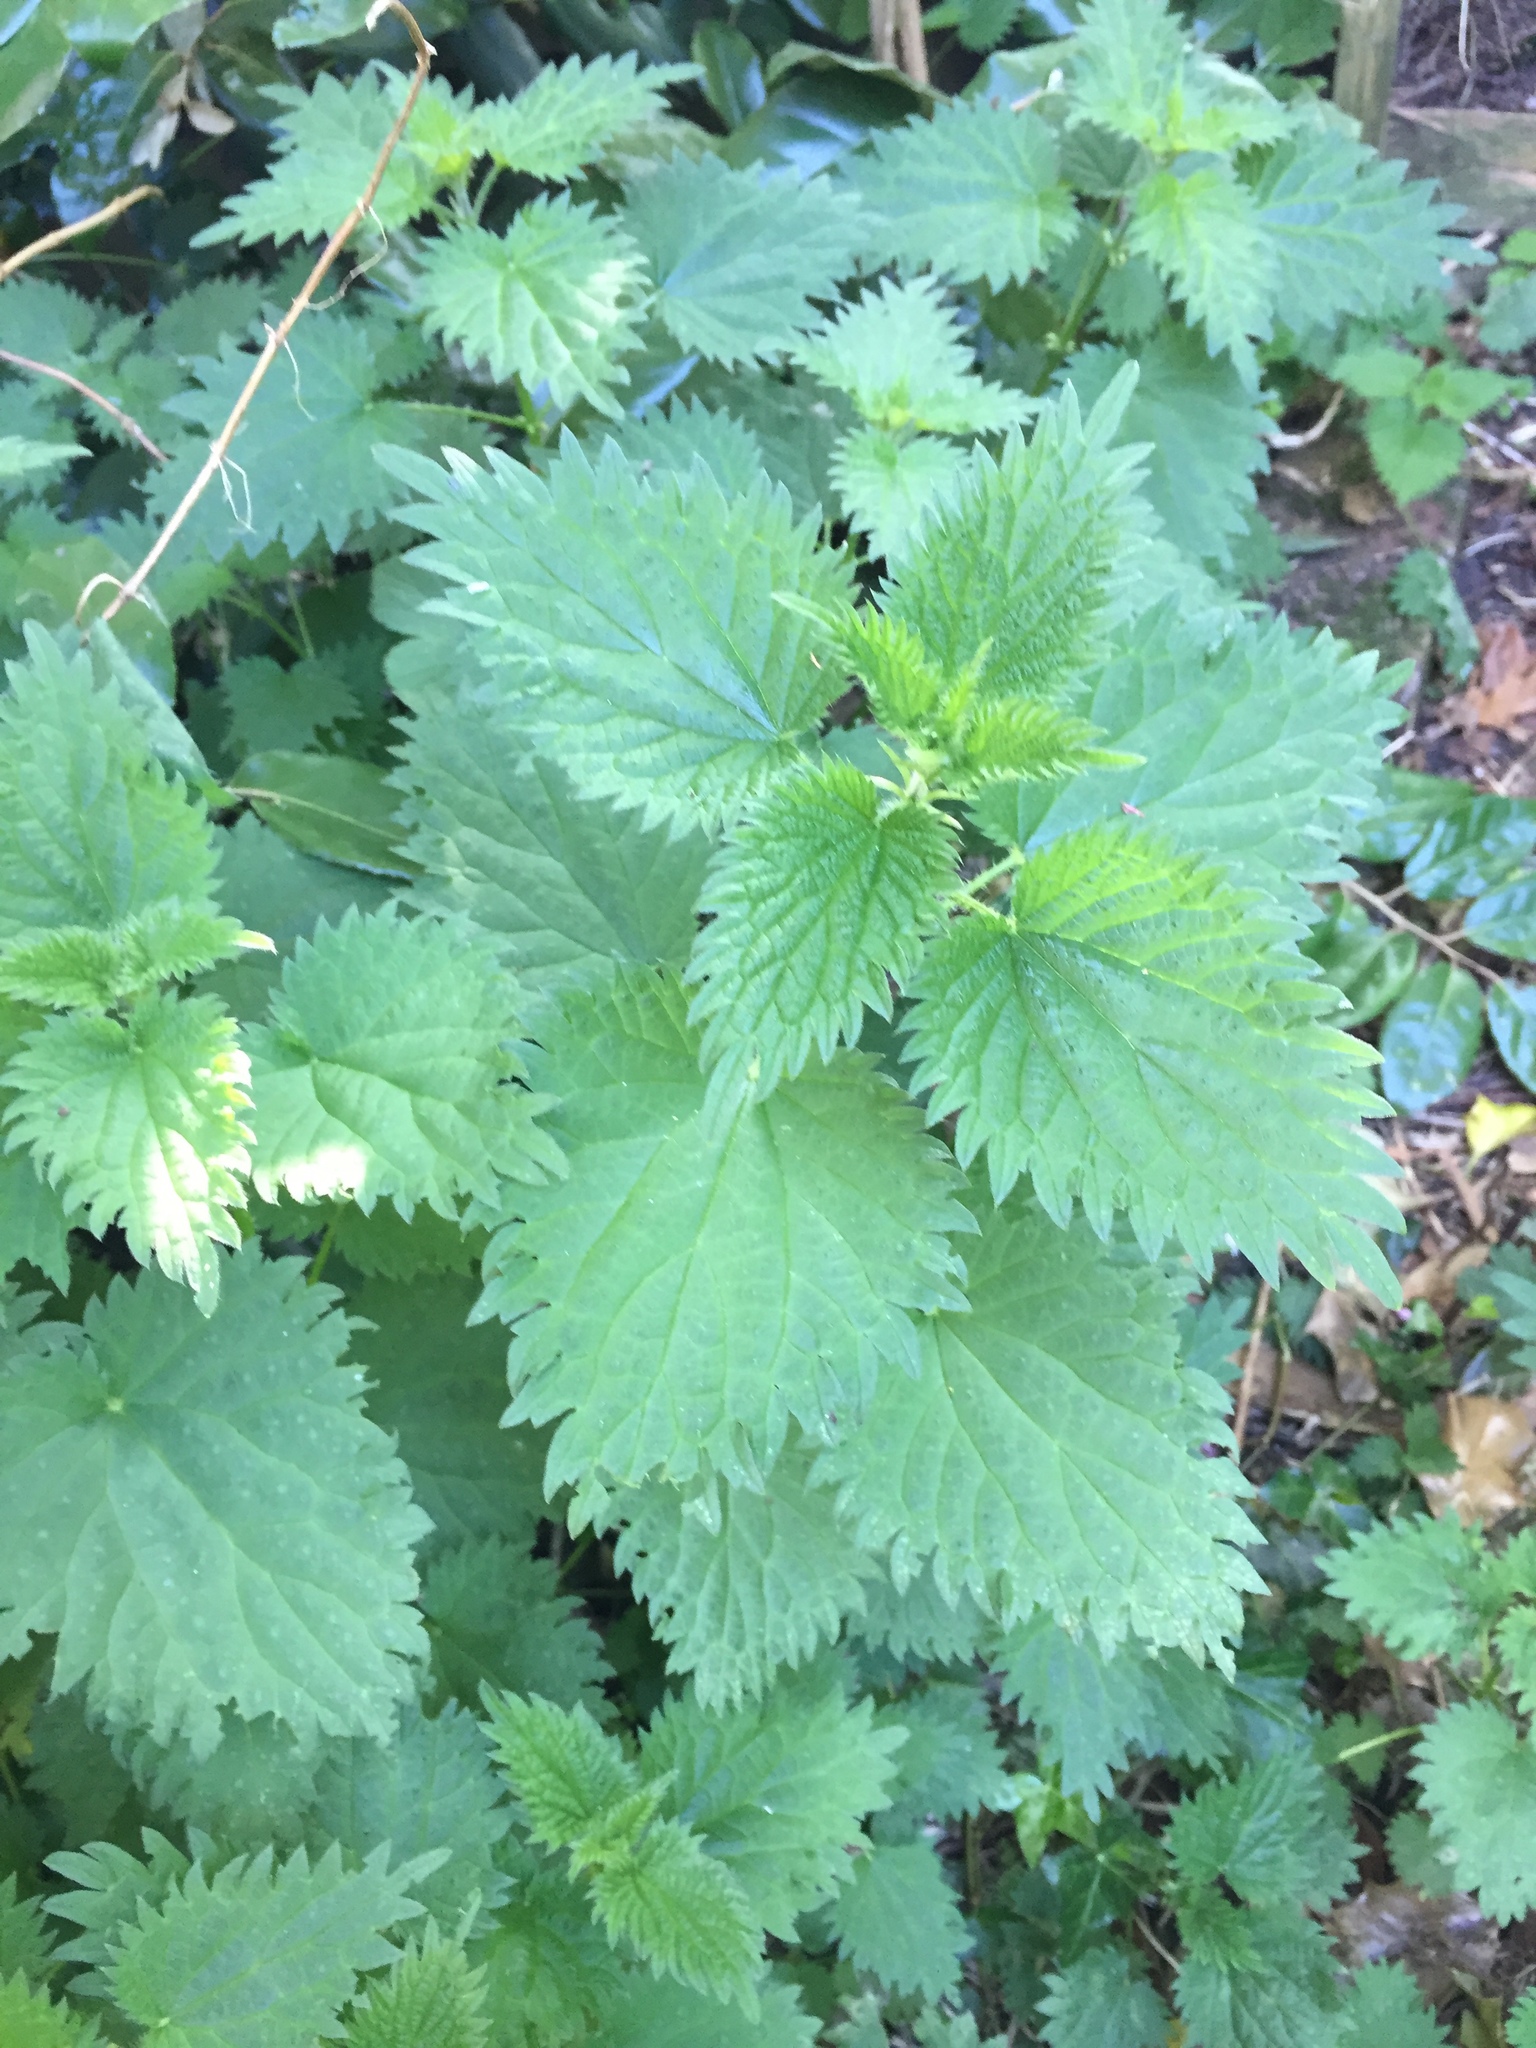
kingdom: Plantae
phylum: Tracheophyta
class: Magnoliopsida
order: Rosales
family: Urticaceae
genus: Urtica
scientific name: Urtica dioica
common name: Common nettle
